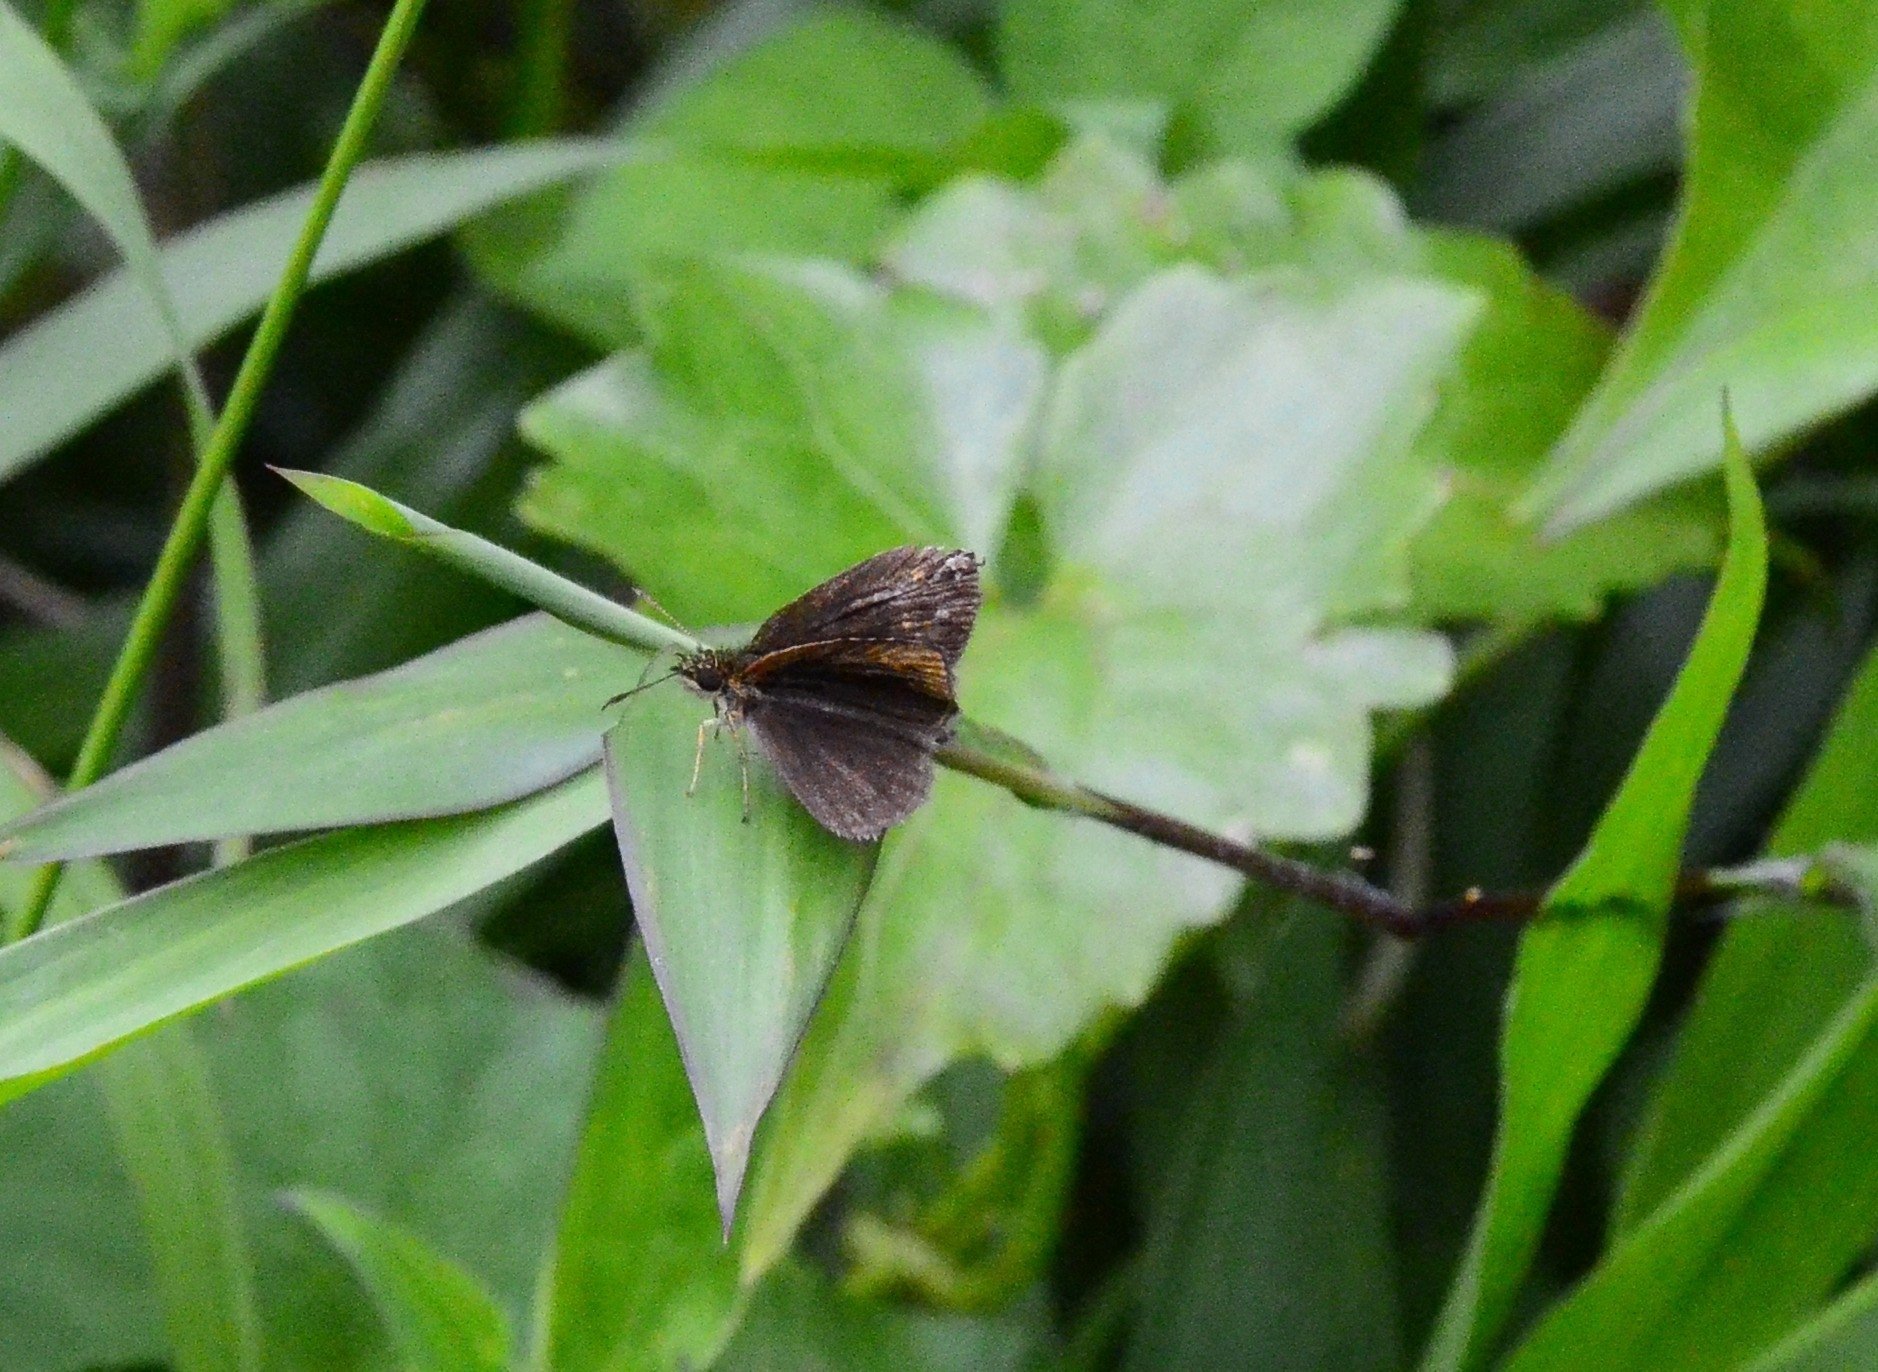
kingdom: Animalia
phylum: Arthropoda
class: Insecta
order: Lepidoptera
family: Hesperiidae
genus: Baracus
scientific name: Baracus vittatus
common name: Hedge-hopper
